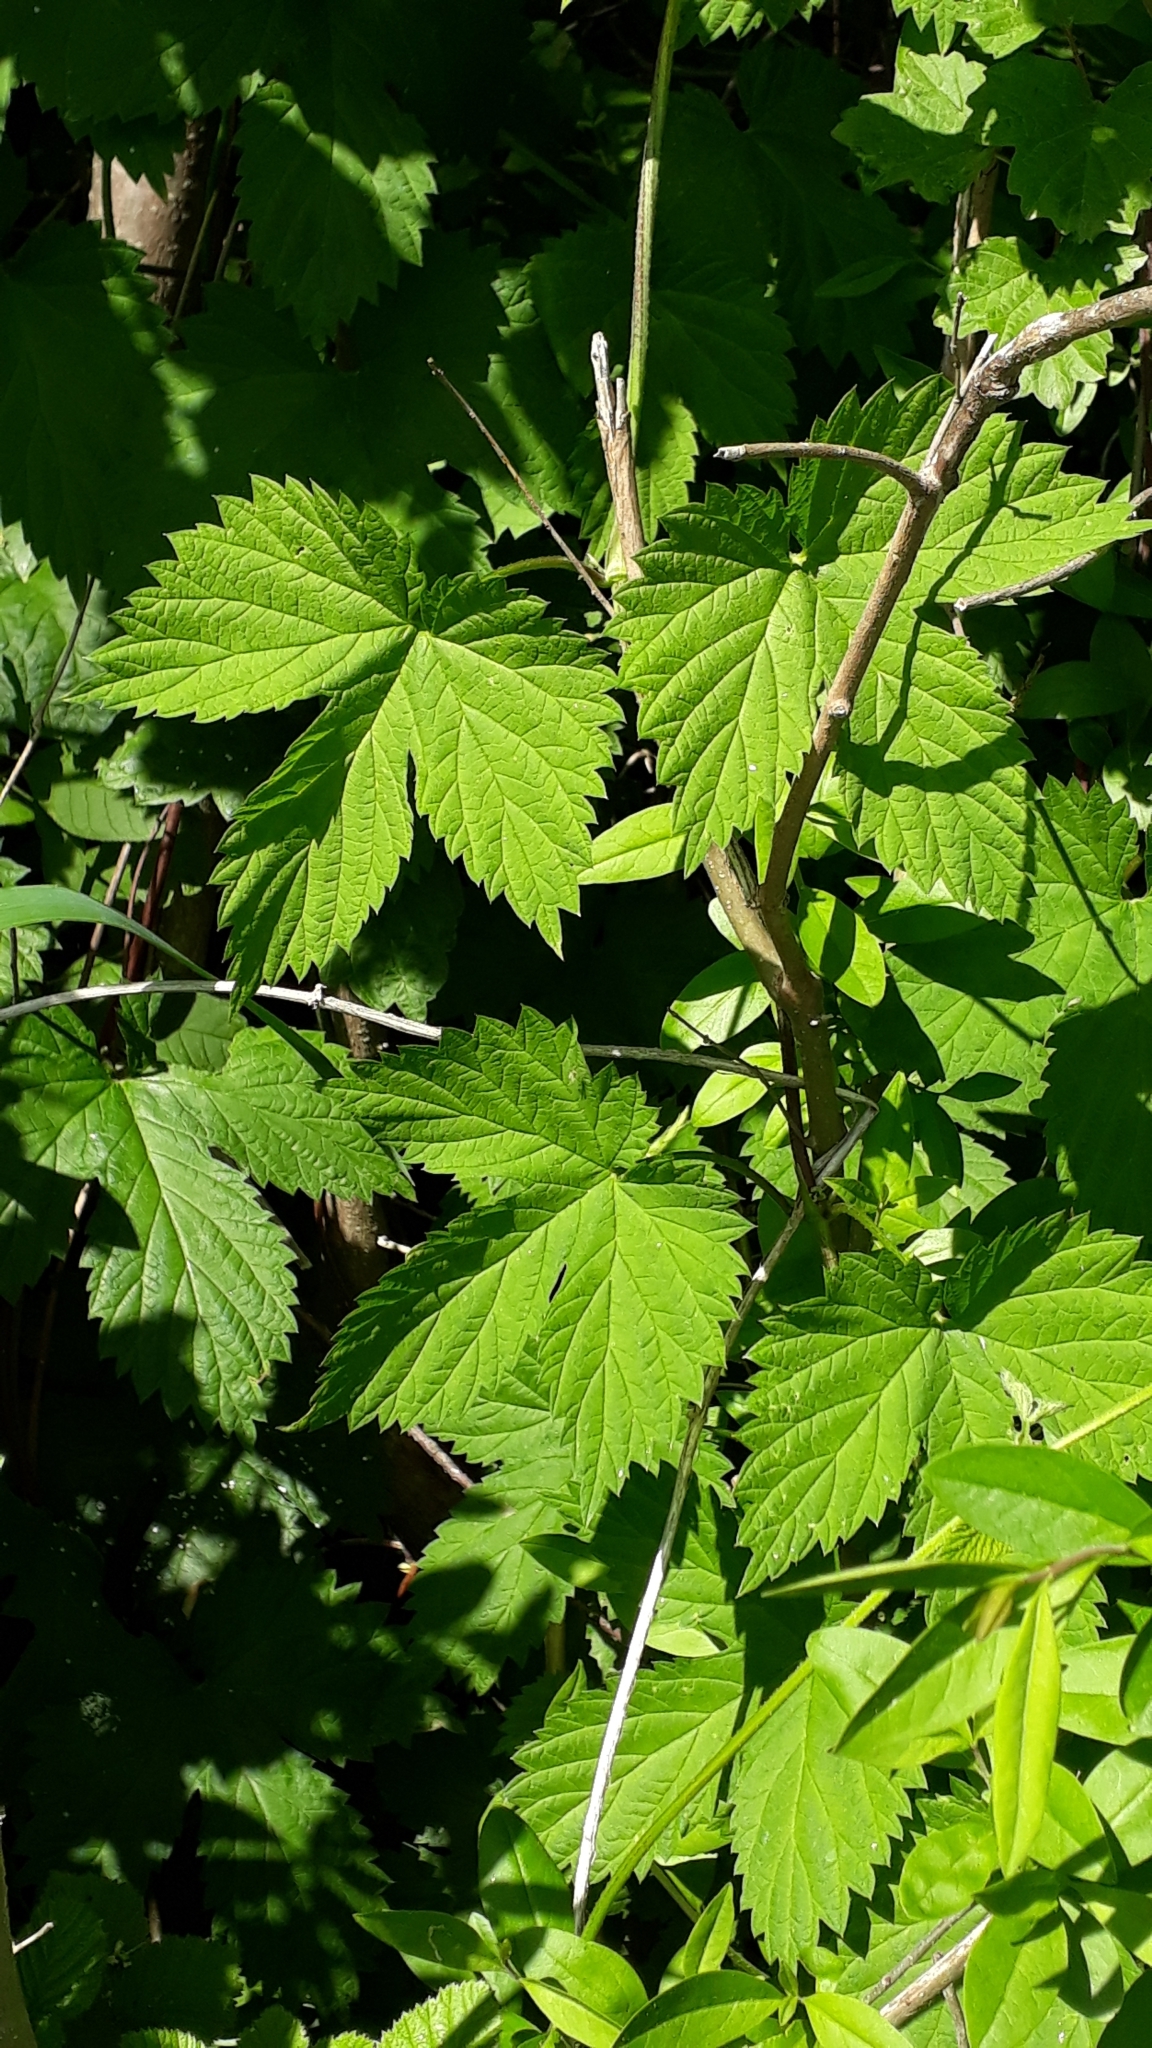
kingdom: Plantae
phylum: Tracheophyta
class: Magnoliopsida
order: Rosales
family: Cannabaceae
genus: Humulus
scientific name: Humulus lupulus
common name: Hop
